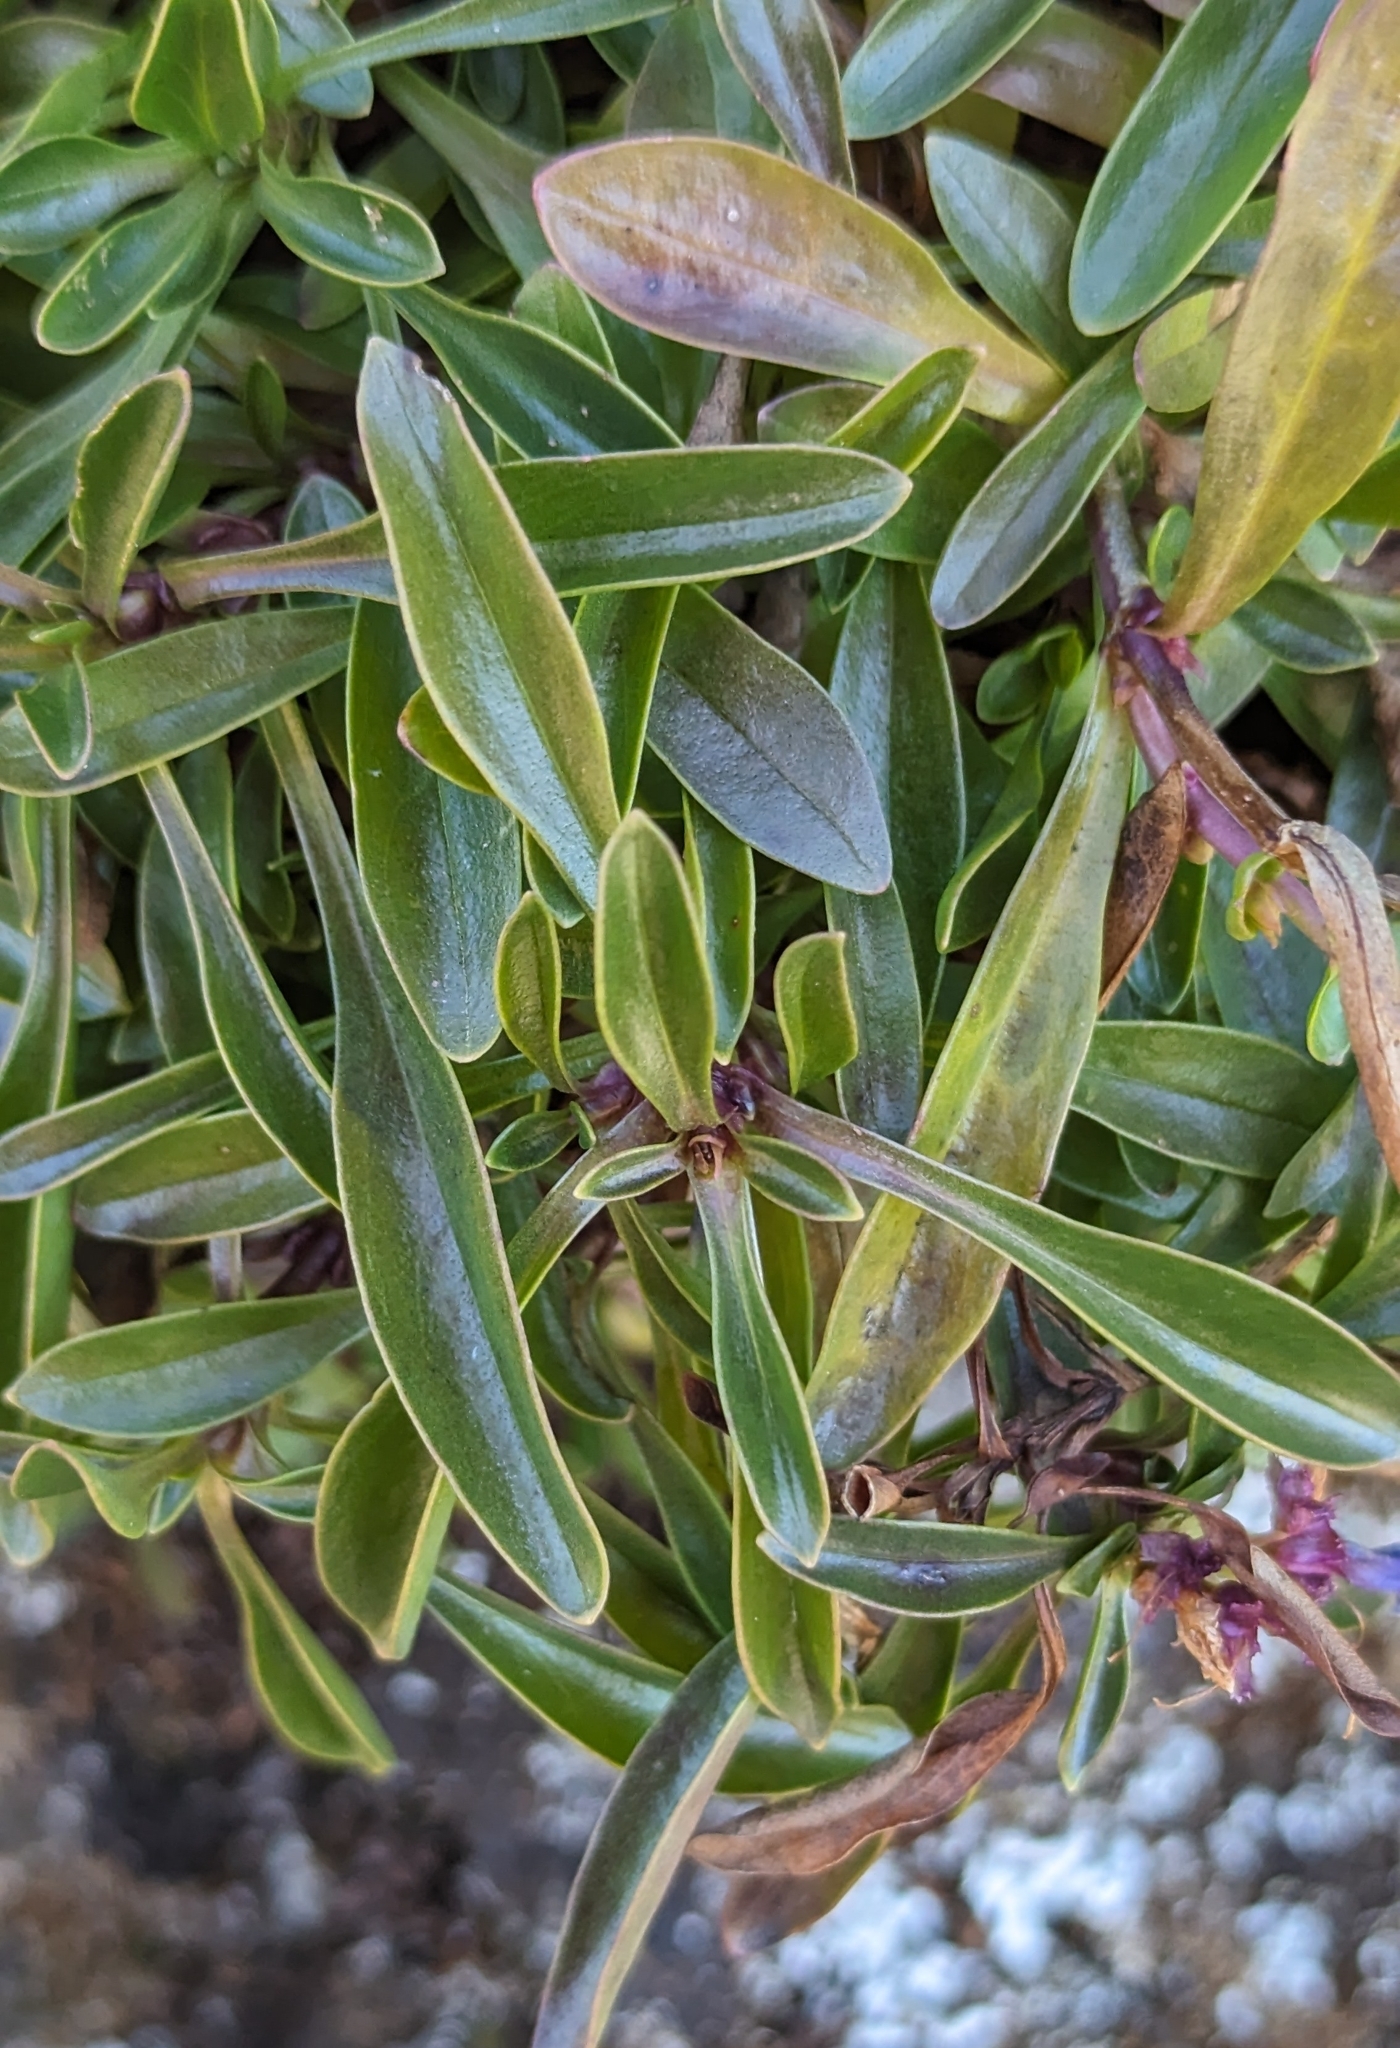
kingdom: Plantae
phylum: Tracheophyta
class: Magnoliopsida
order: Lamiales
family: Plantaginaceae
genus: Penstemon
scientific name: Penstemon procerus
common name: Small-flower penstemon
